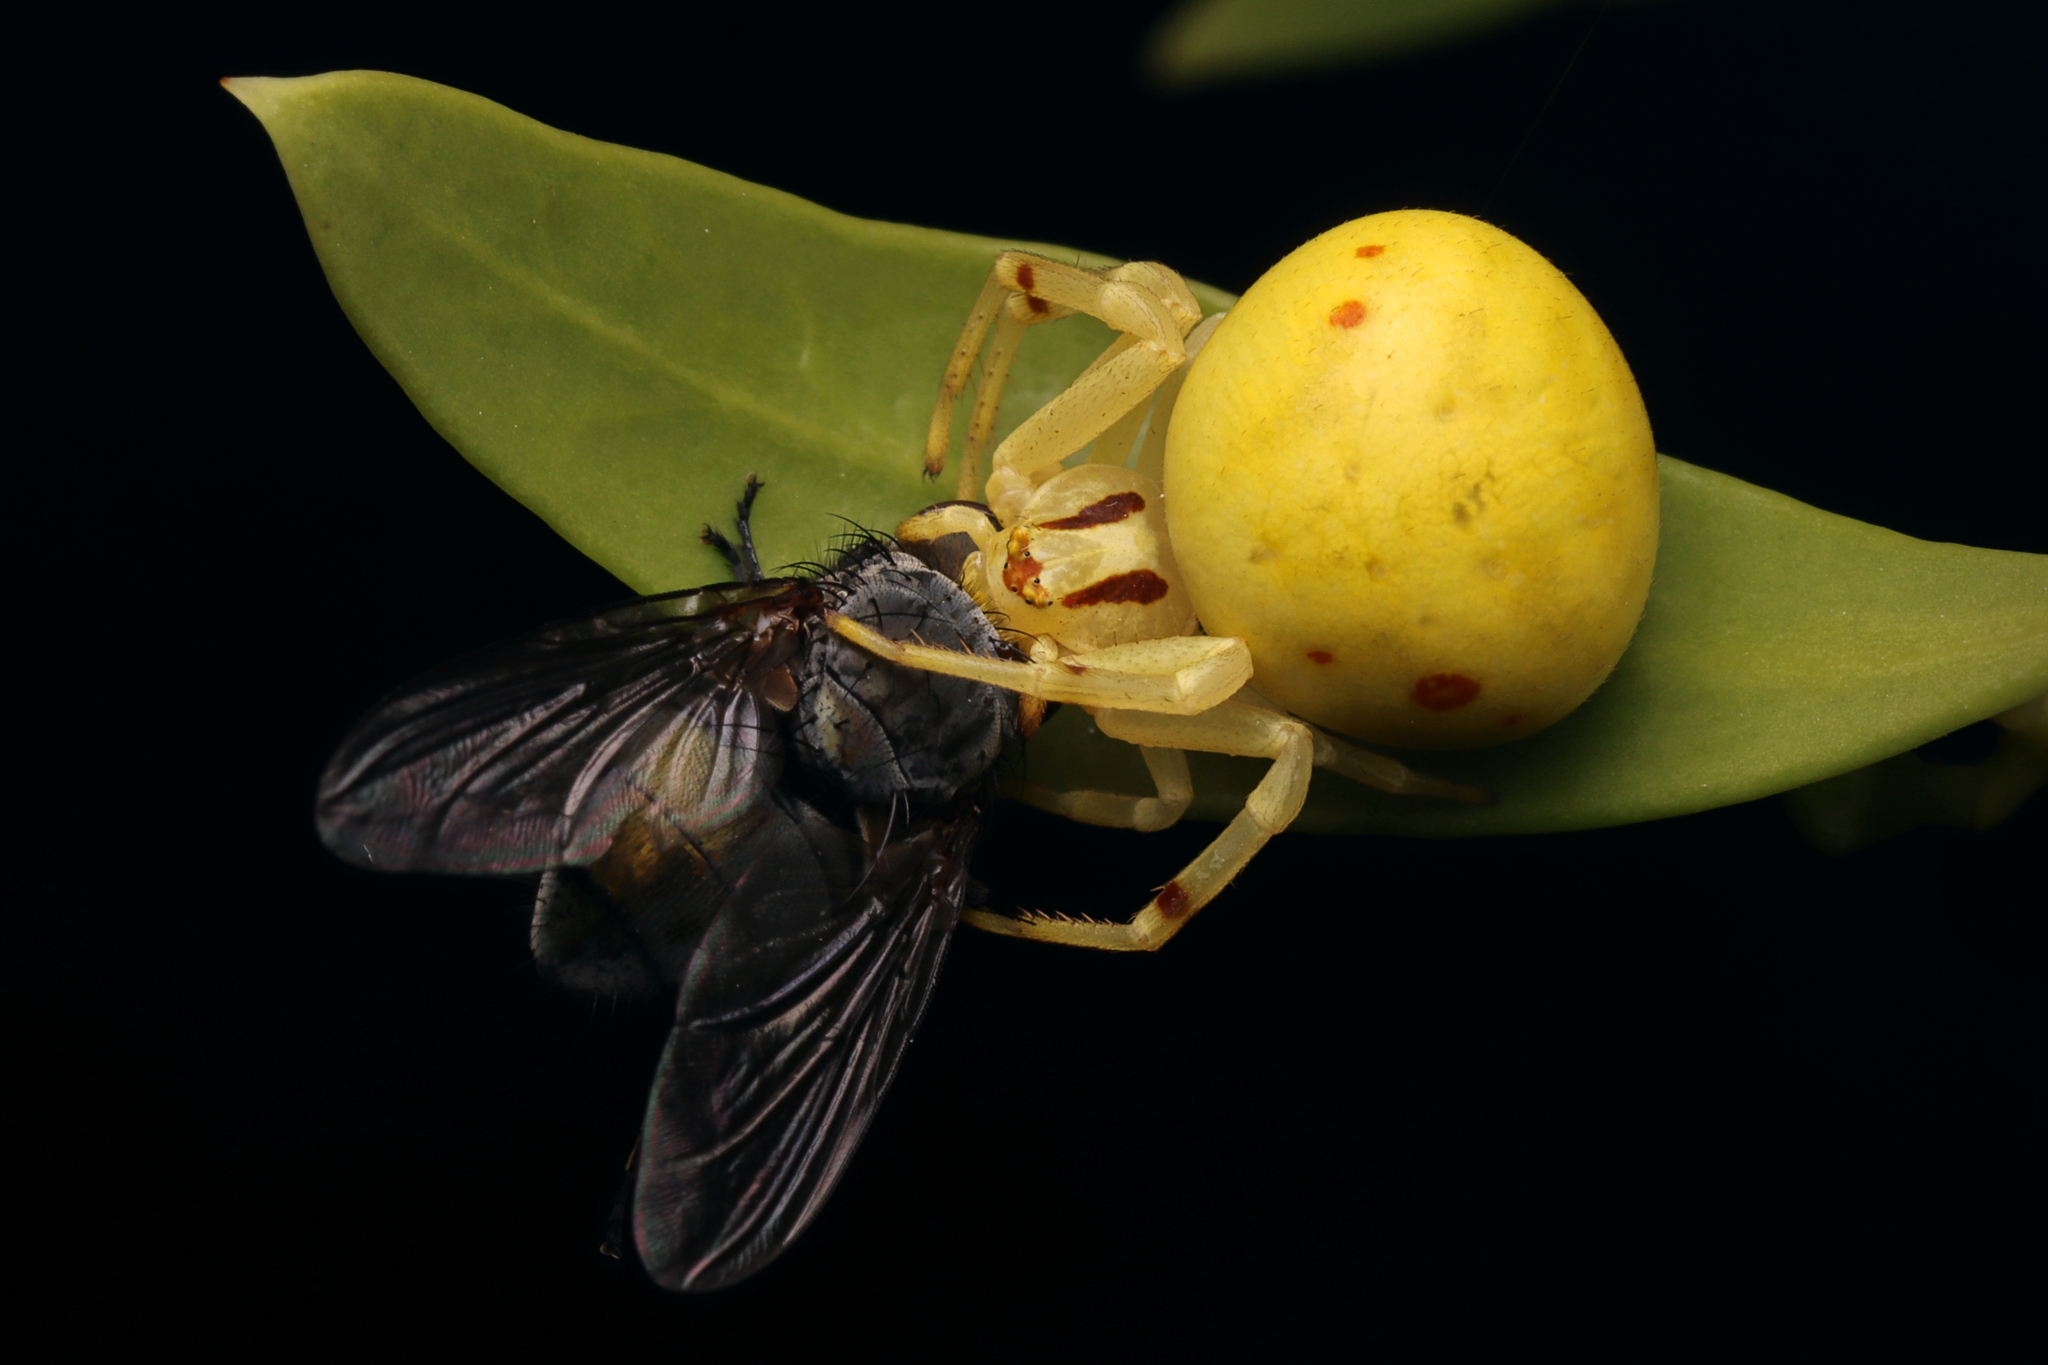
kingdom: Animalia
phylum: Arthropoda
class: Arachnida
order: Araneae
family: Thomisidae
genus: Zygometis
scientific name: Zygometis xanthogaster
